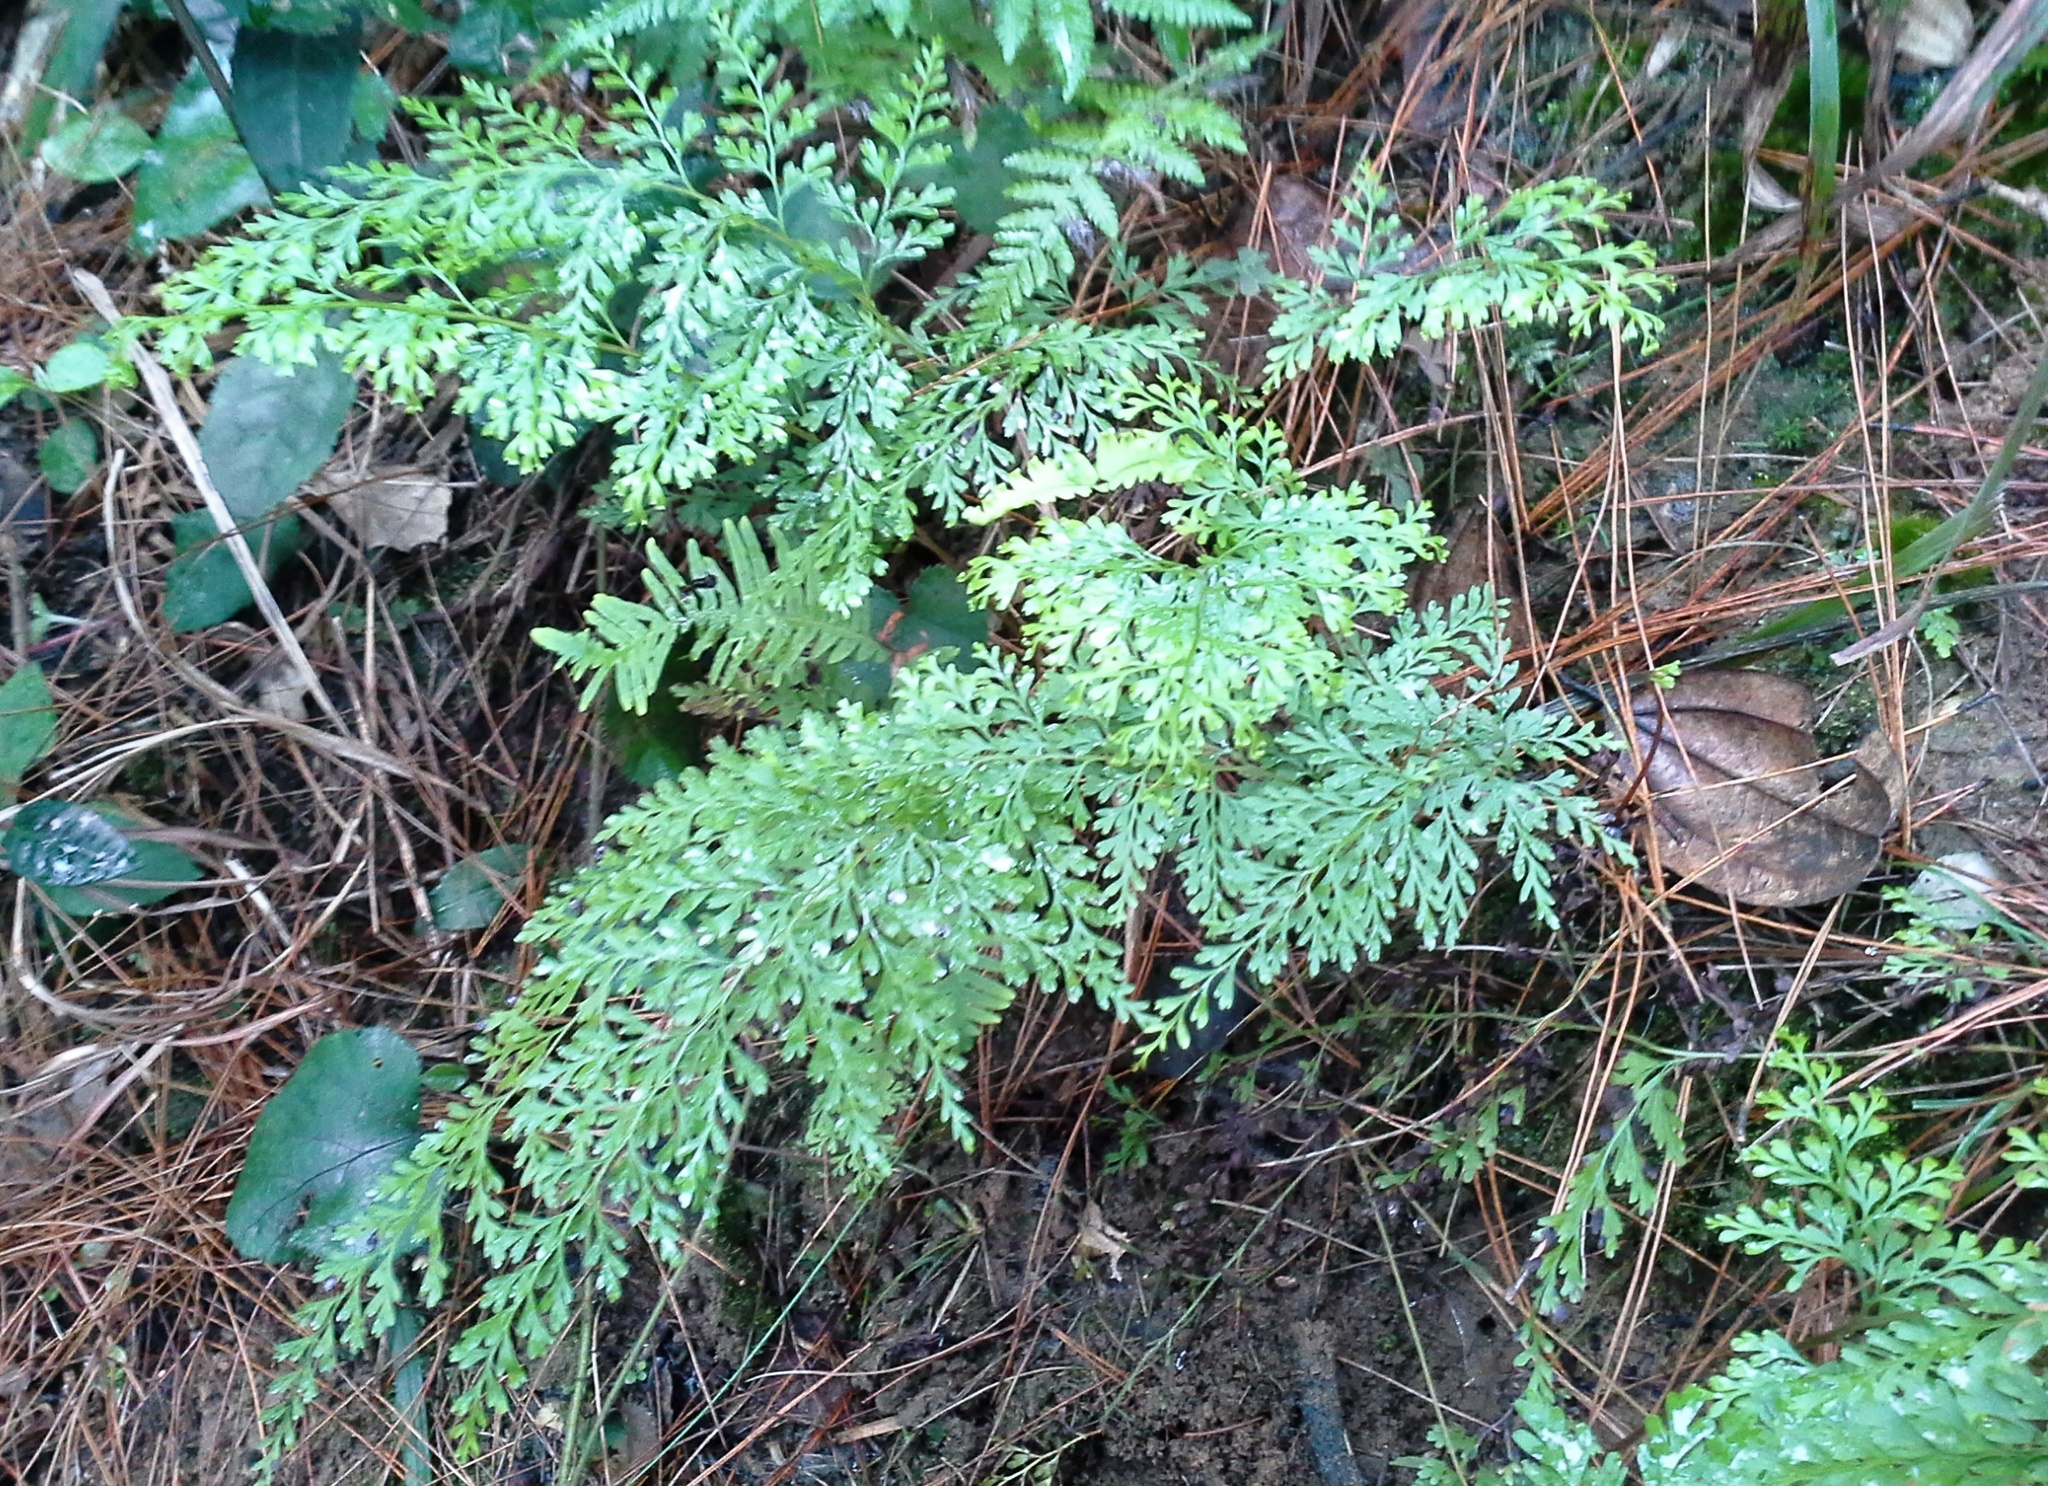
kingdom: Plantae
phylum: Tracheophyta
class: Polypodiopsida
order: Polypodiales
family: Lindsaeaceae
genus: Odontosoria
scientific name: Odontosoria chinensis
